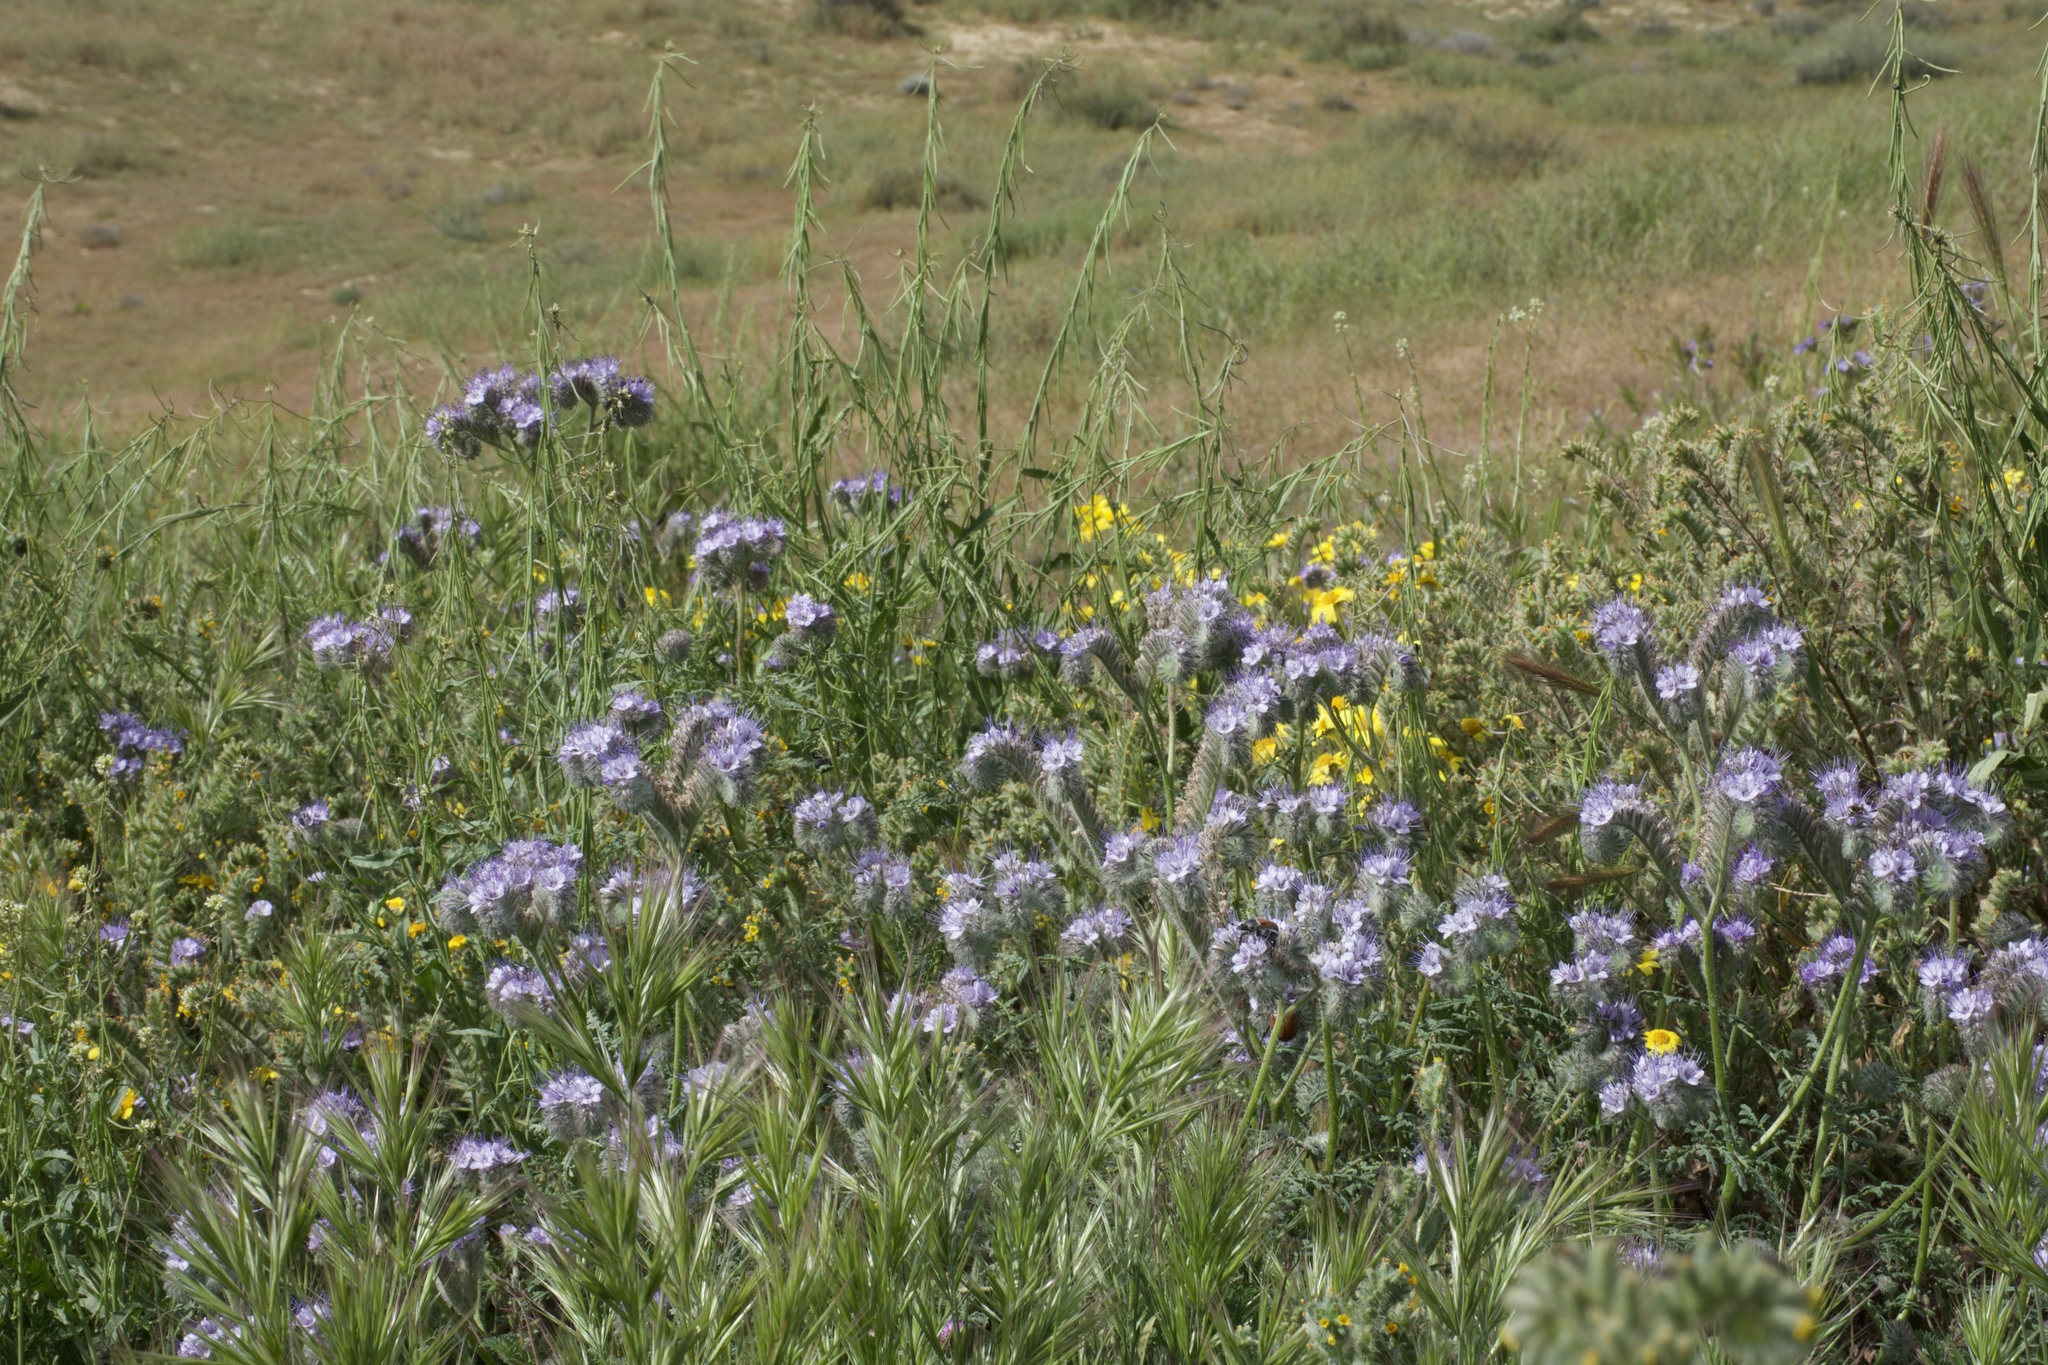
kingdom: Plantae
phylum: Tracheophyta
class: Magnoliopsida
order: Boraginales
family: Hydrophyllaceae
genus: Phacelia
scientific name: Phacelia tanacetifolia
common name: Phacelia
